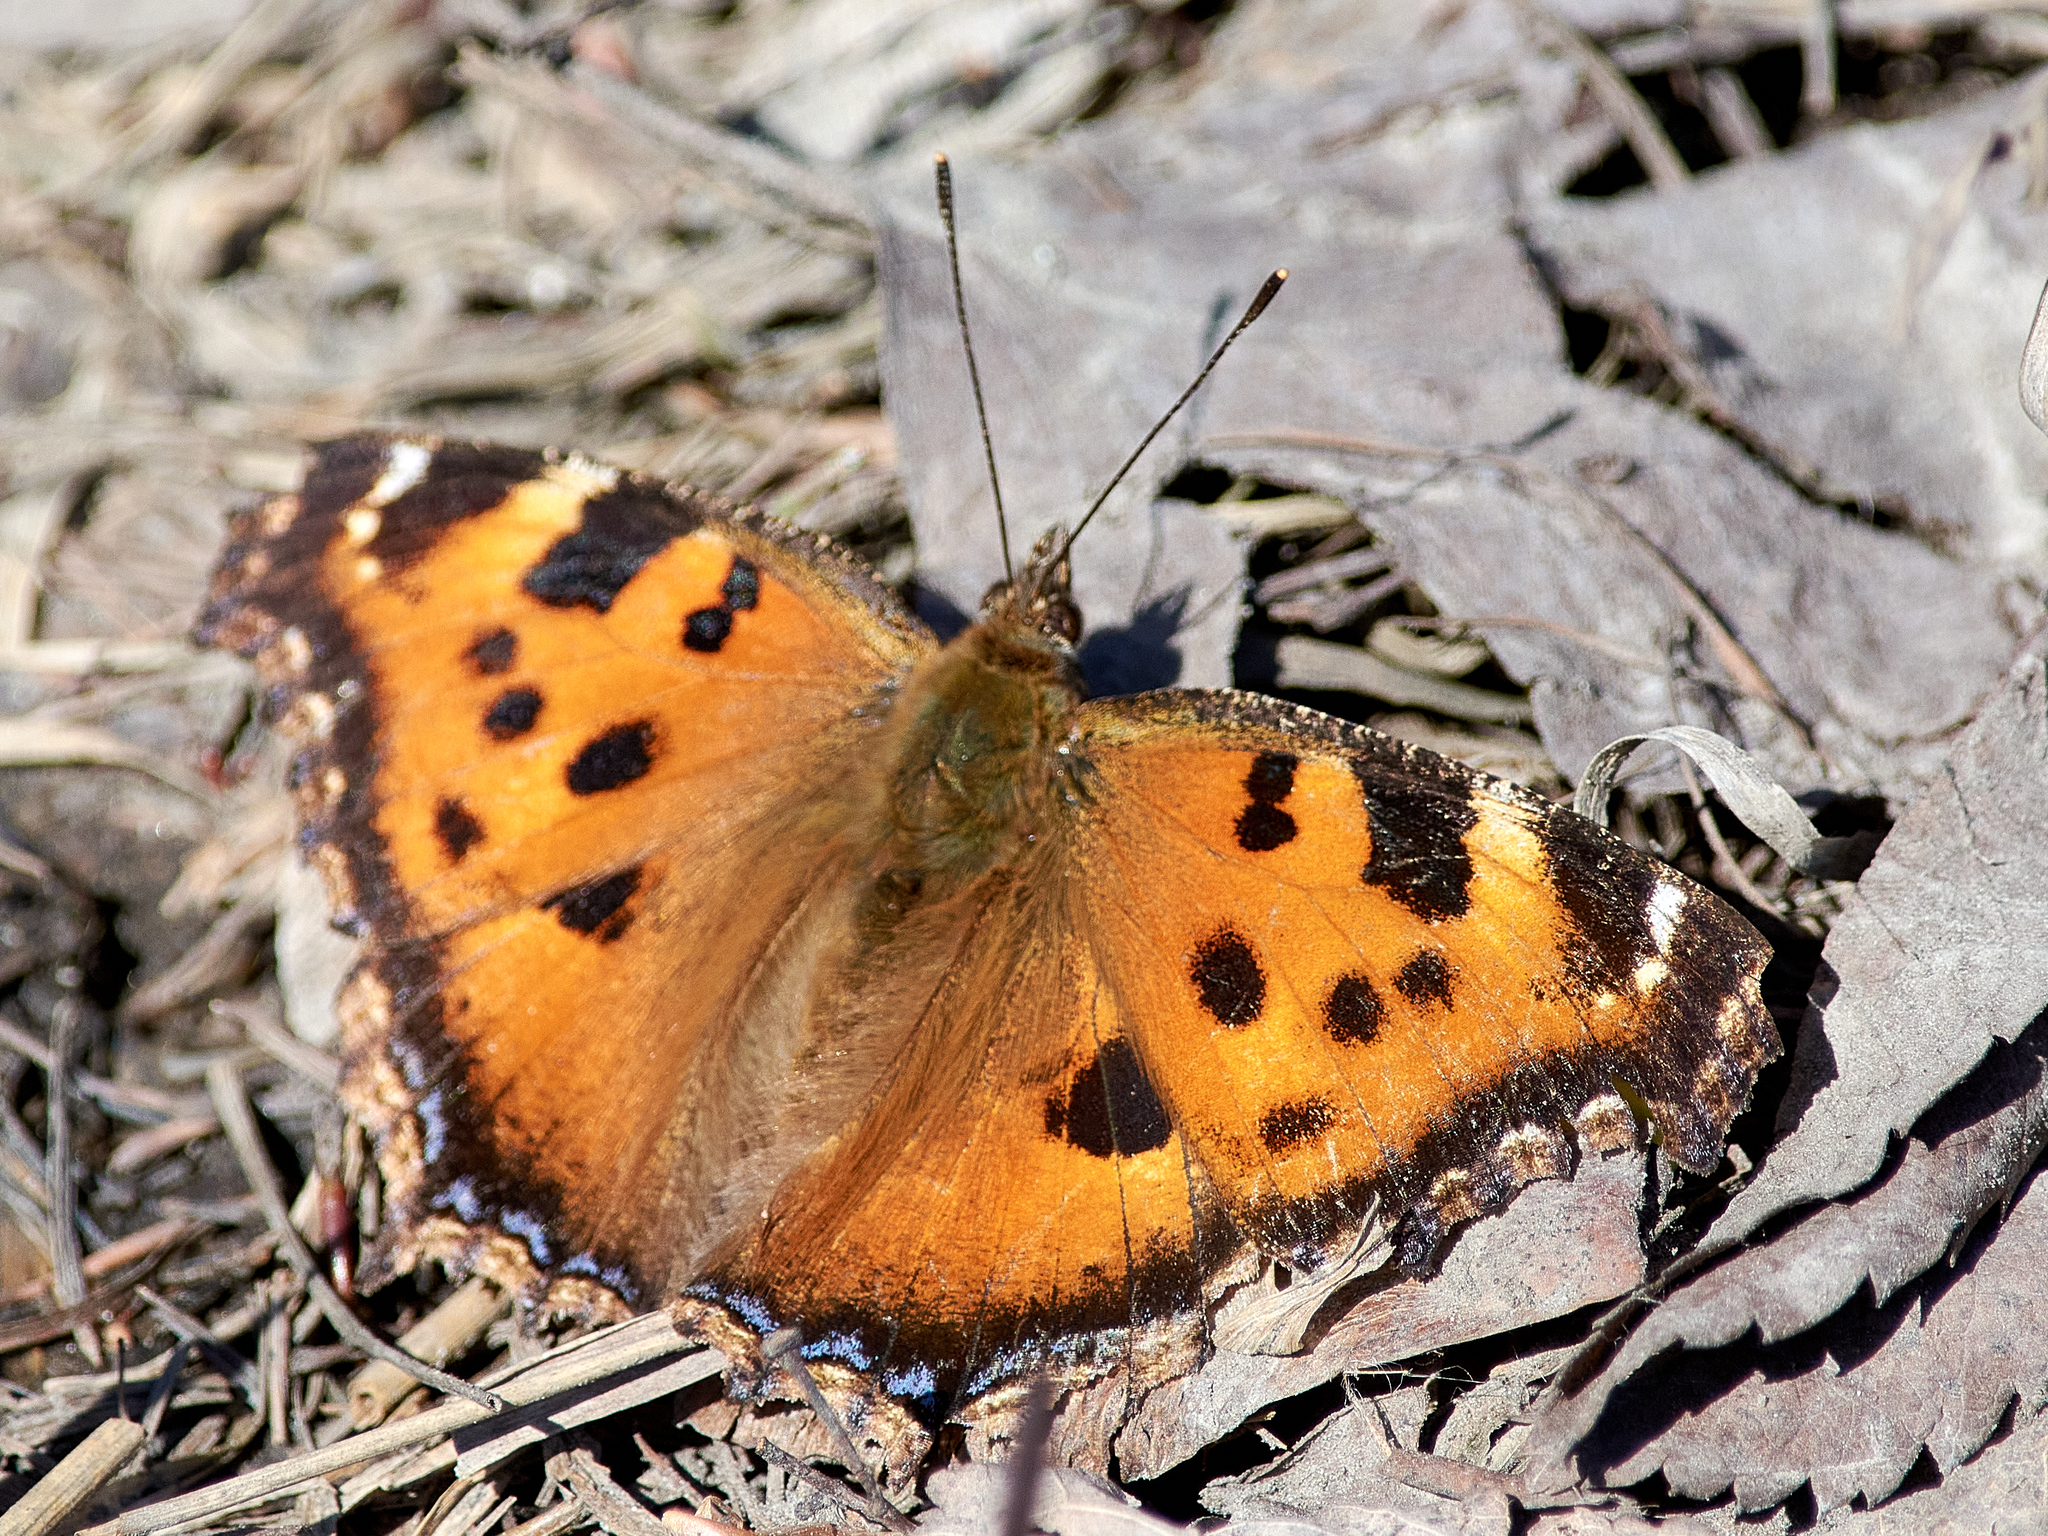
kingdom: Animalia
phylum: Arthropoda
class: Insecta
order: Lepidoptera
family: Nymphalidae
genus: Nymphalis
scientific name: Nymphalis xanthomelas
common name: Scarce tortoiseshell
